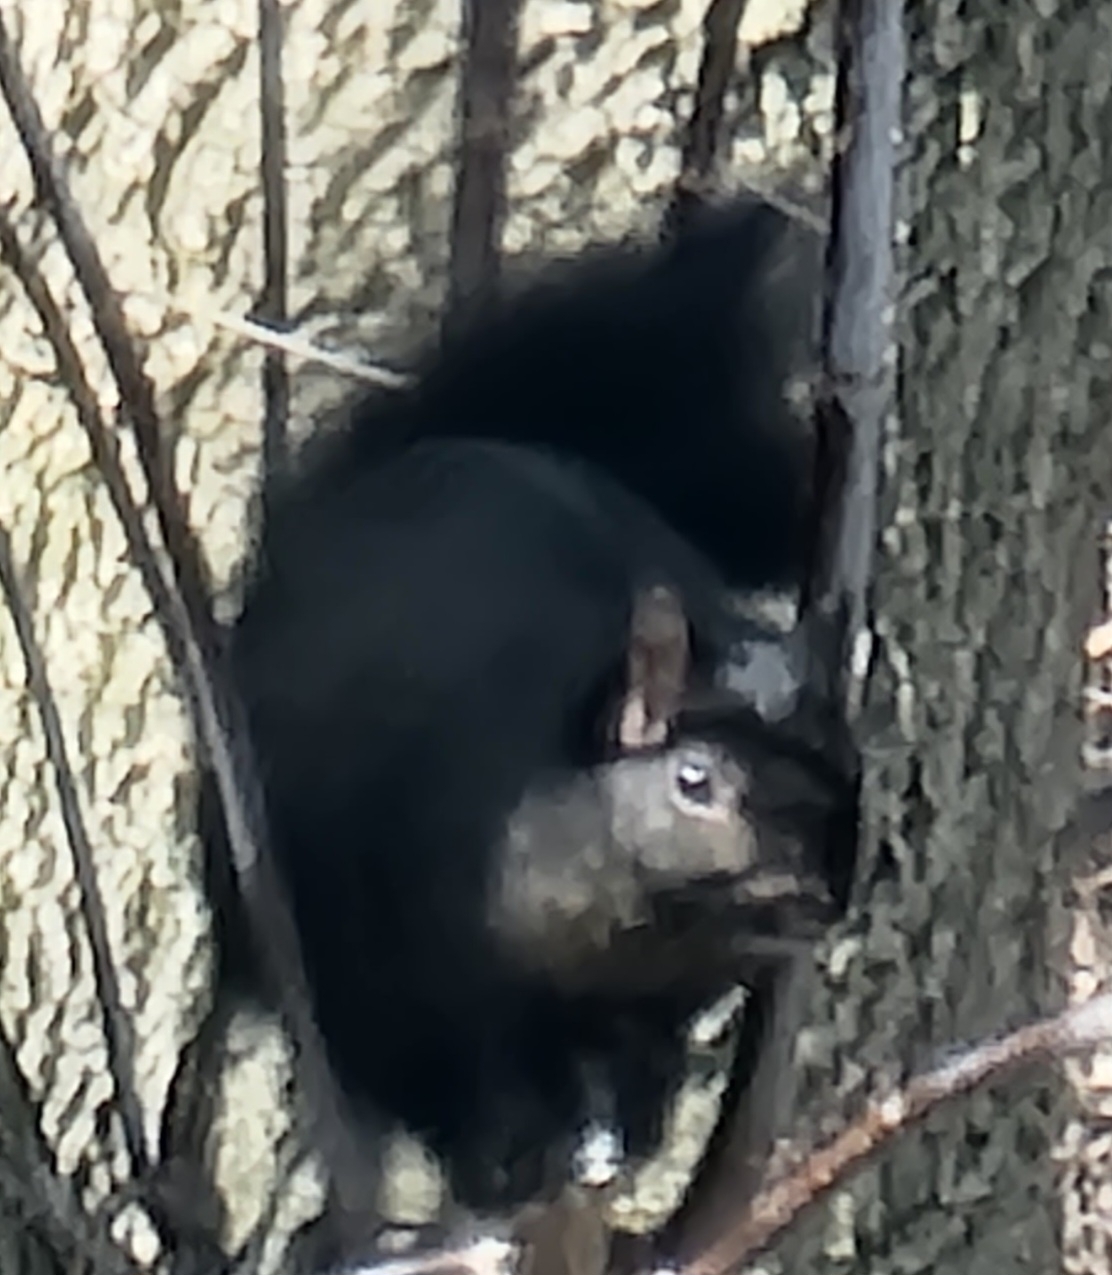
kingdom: Animalia
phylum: Chordata
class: Mammalia
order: Rodentia
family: Sciuridae
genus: Sciurus
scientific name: Sciurus carolinensis
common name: Eastern gray squirrel
